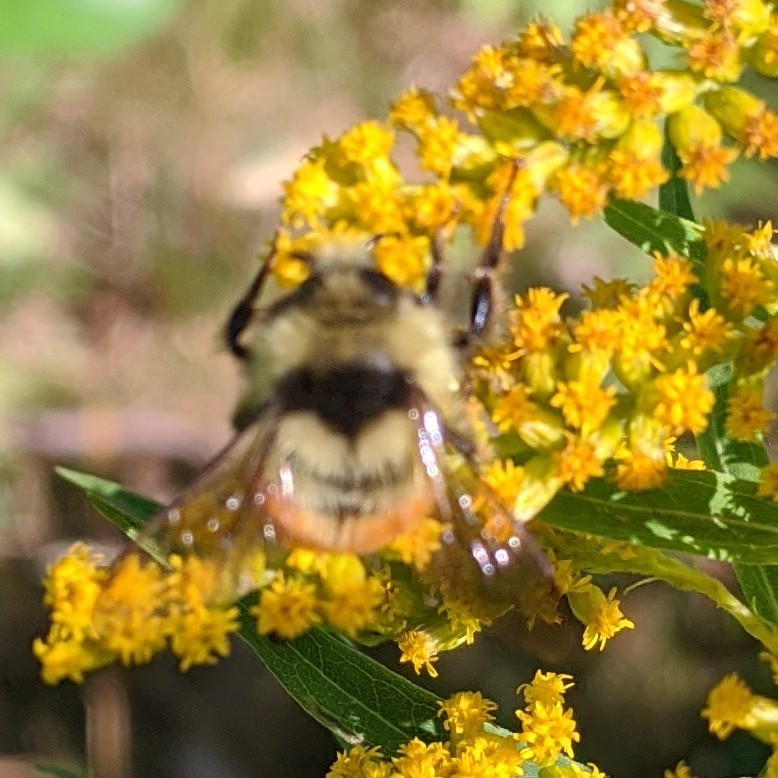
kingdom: Animalia
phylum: Arthropoda
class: Insecta
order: Hymenoptera
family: Apidae
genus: Bombus
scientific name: Bombus ternarius
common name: Tri-colored bumble bee
